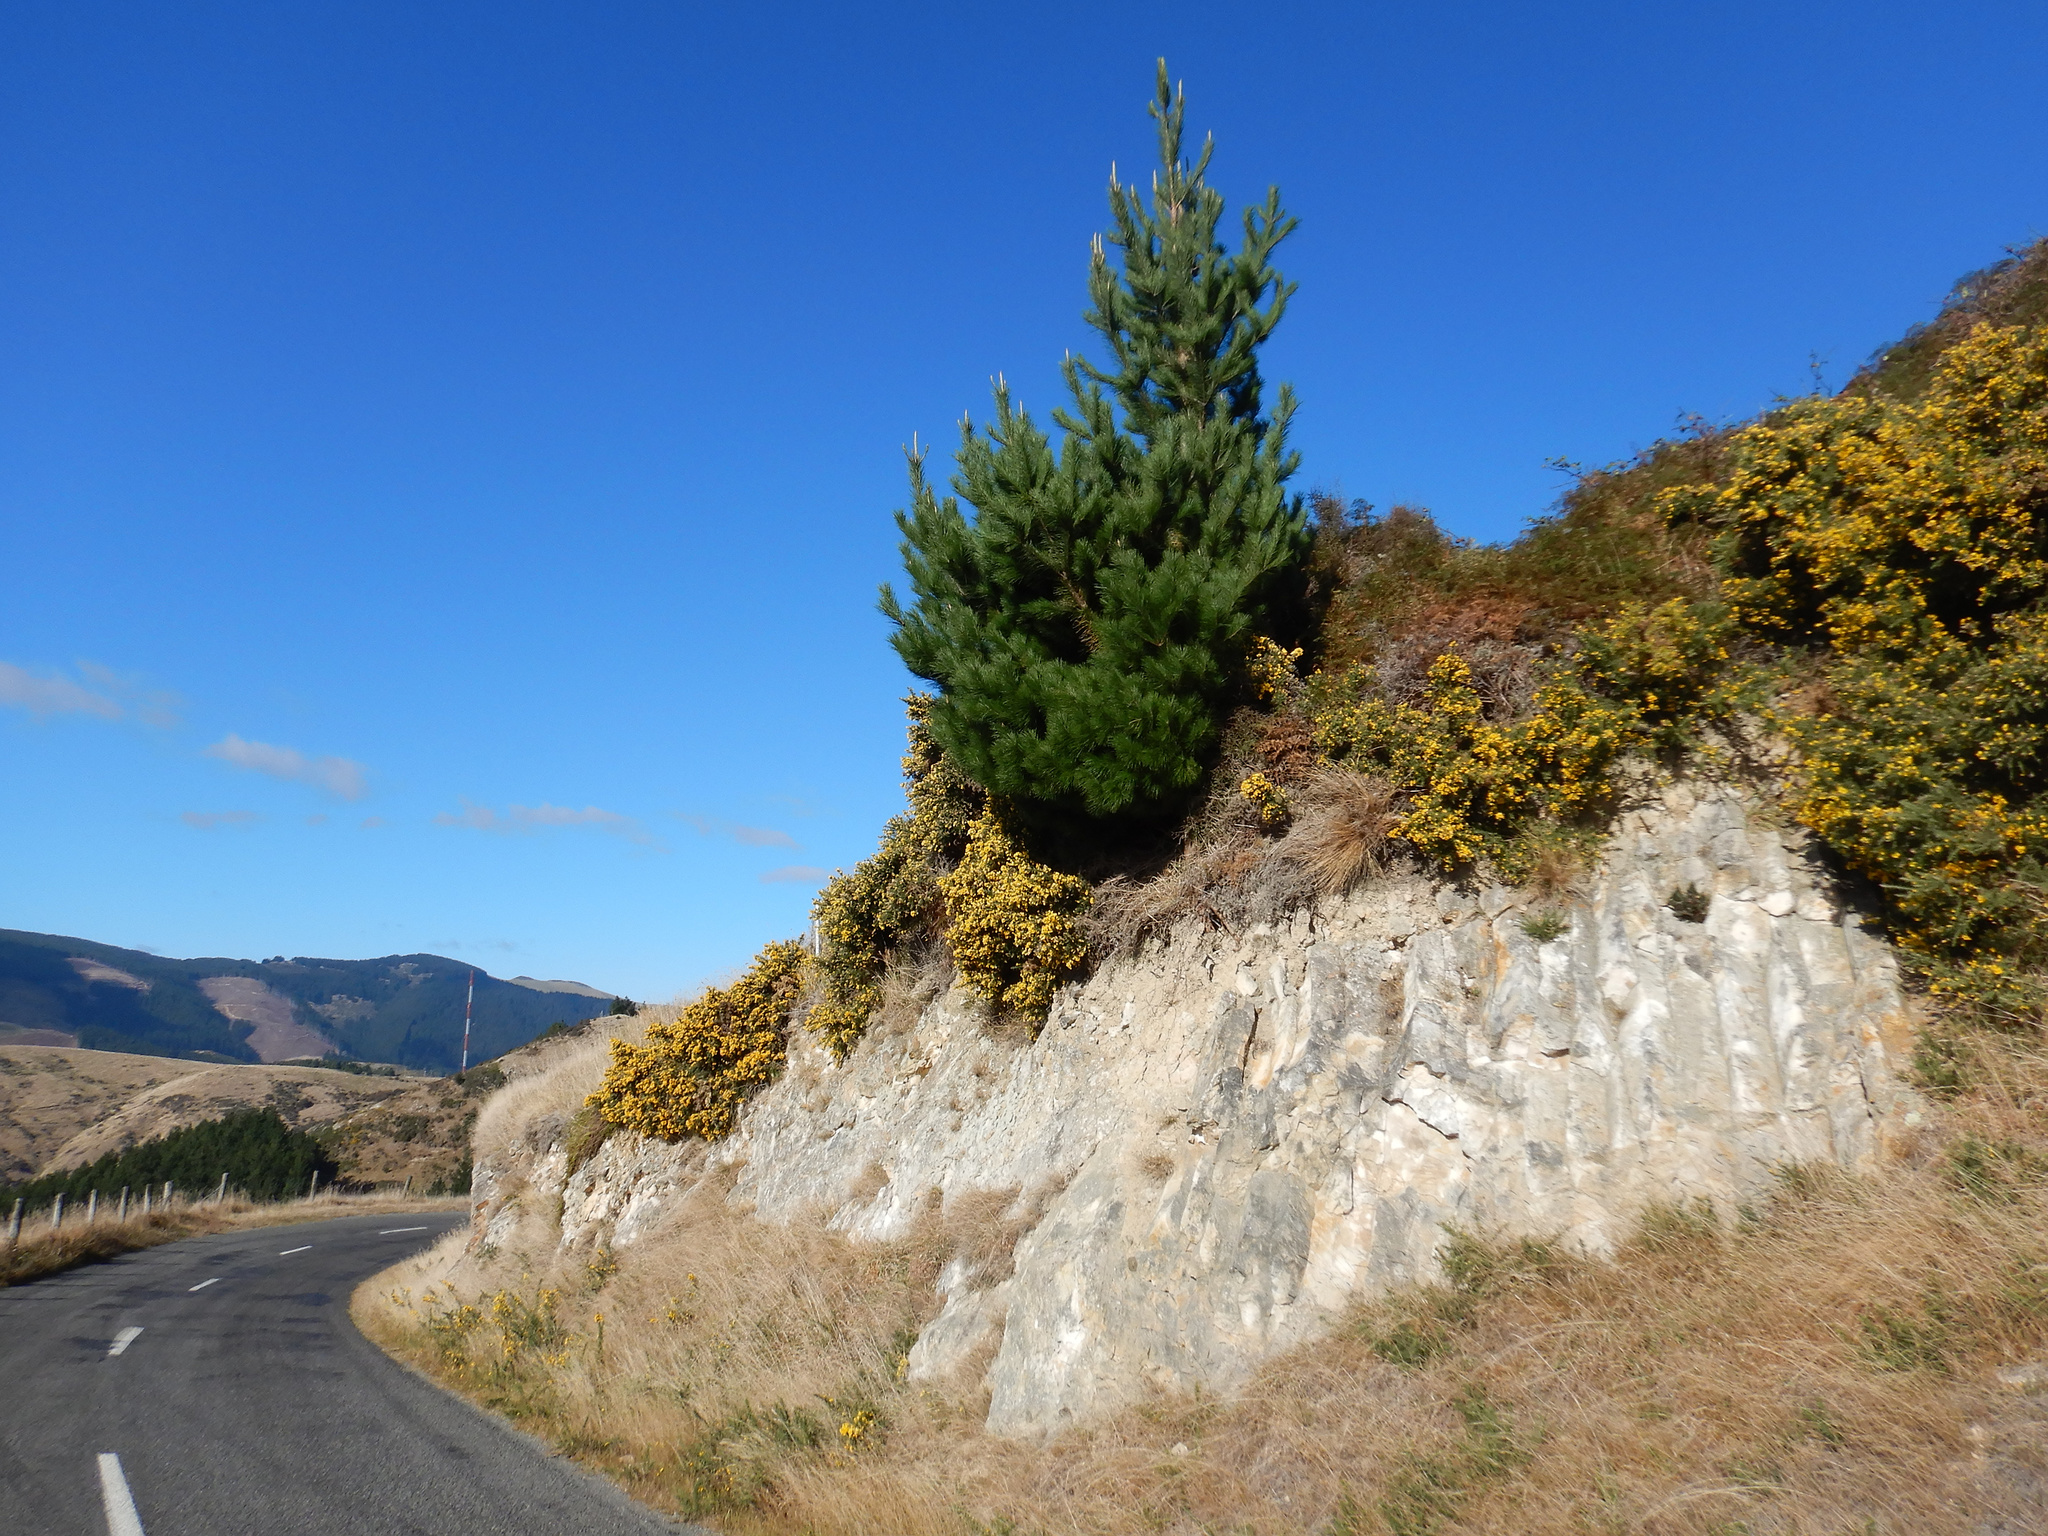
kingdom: Plantae
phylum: Tracheophyta
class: Pinopsida
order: Pinales
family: Pinaceae
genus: Pinus
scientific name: Pinus radiata
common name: Monterey pine
